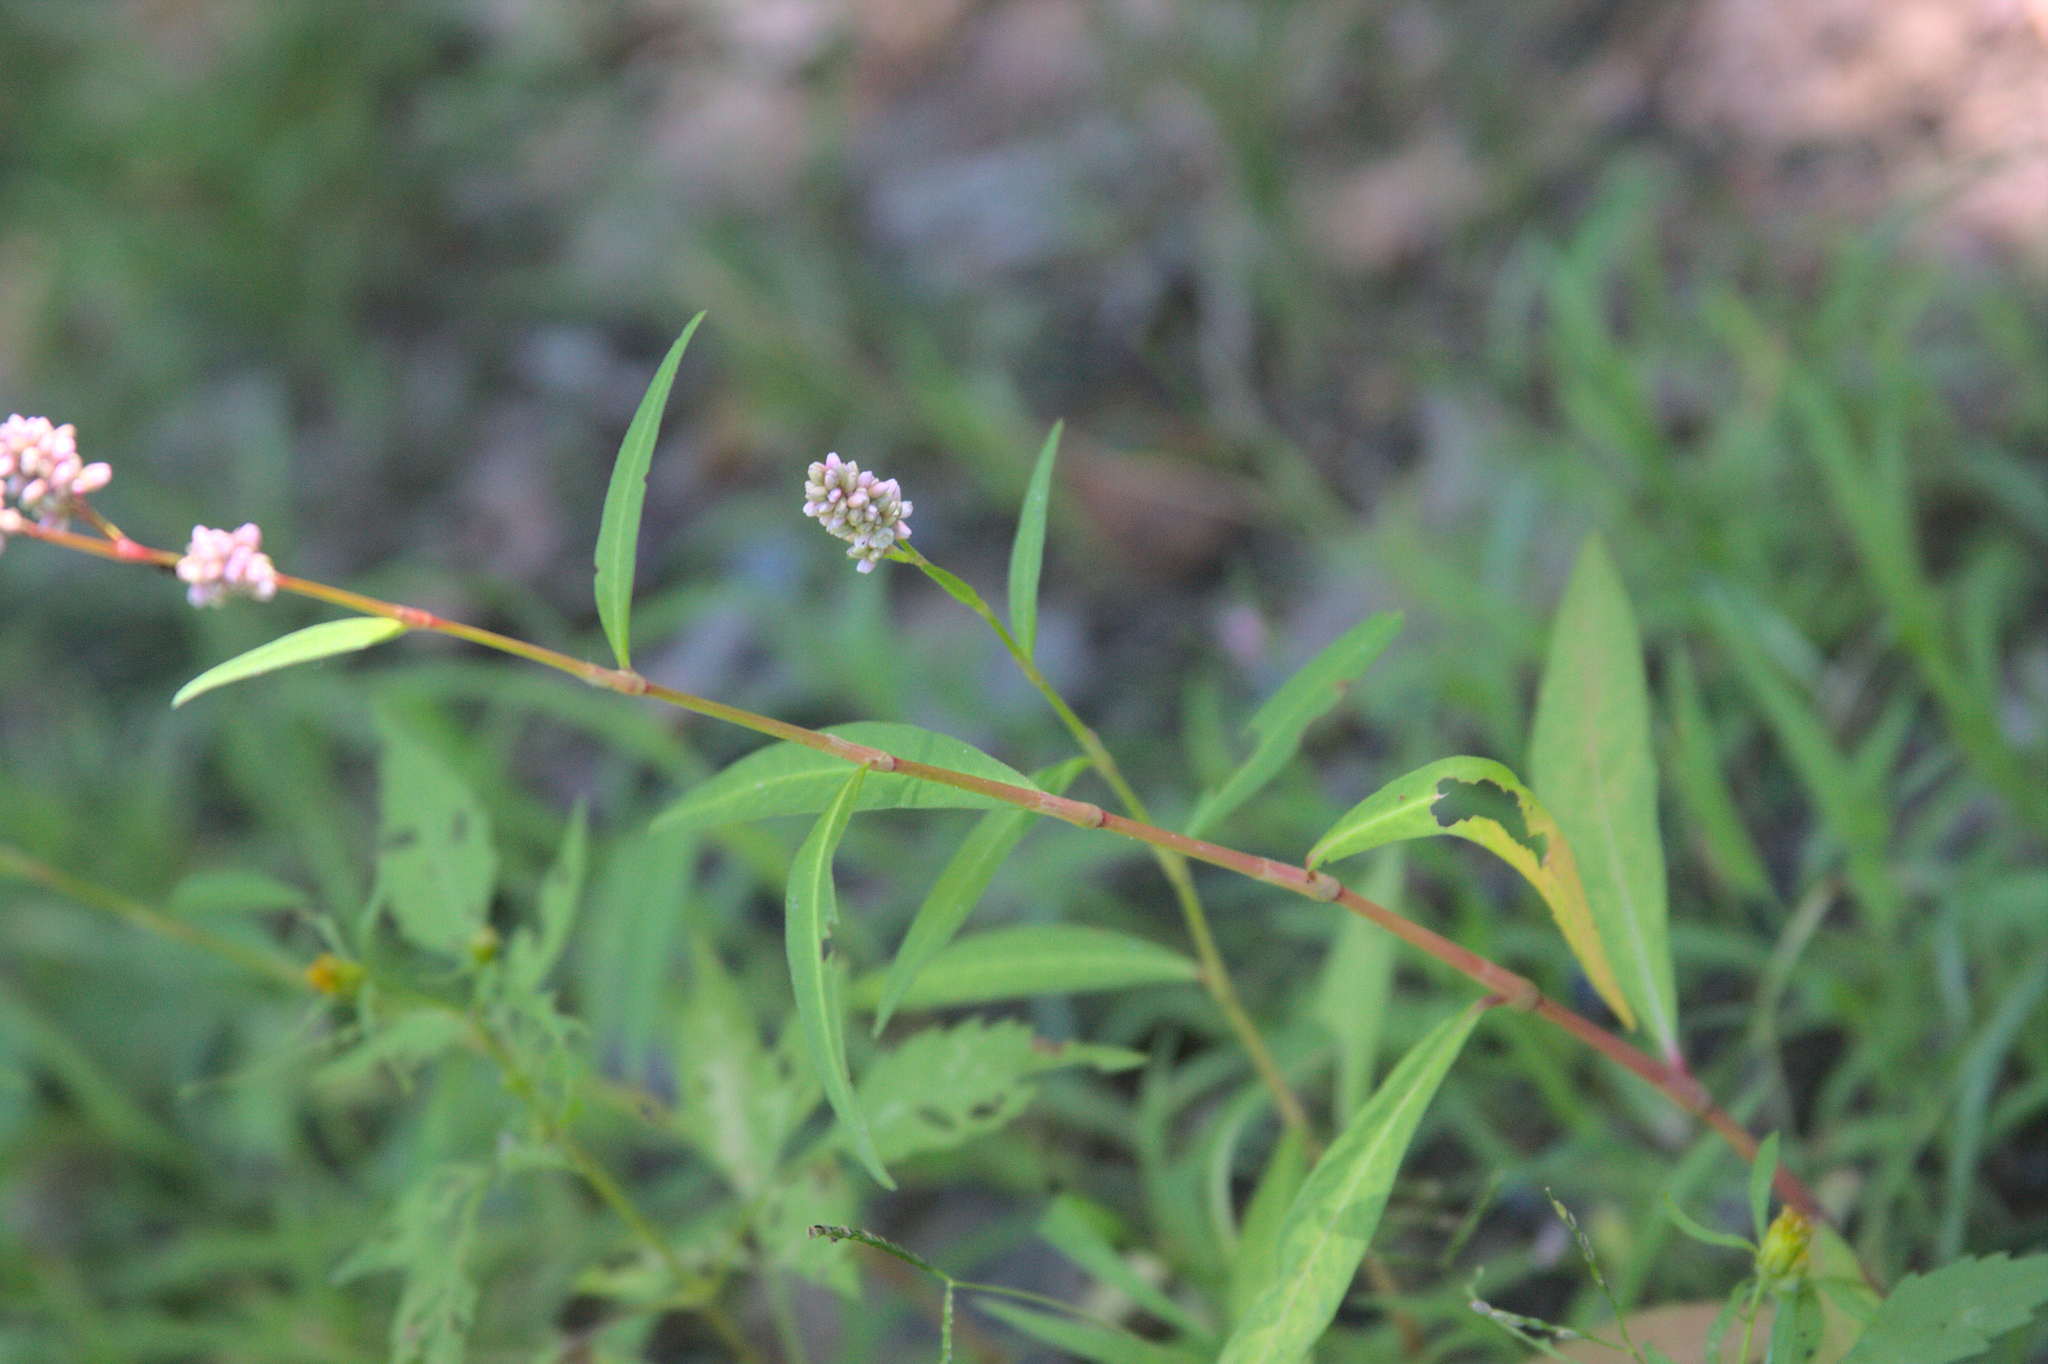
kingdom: Plantae
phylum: Tracheophyta
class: Magnoliopsida
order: Caryophyllales
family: Polygonaceae
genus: Persicaria
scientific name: Persicaria pensylvanica
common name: Pinkweed
